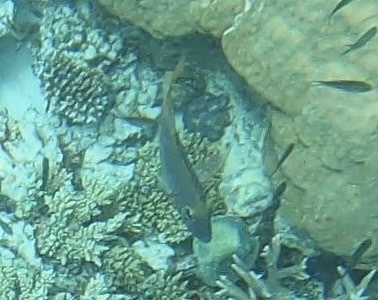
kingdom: Animalia
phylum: Chordata
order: Perciformes
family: Lethrinidae
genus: Lethrinus
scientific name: Lethrinus atkinsoni
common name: Pacific yellowtail emperor
